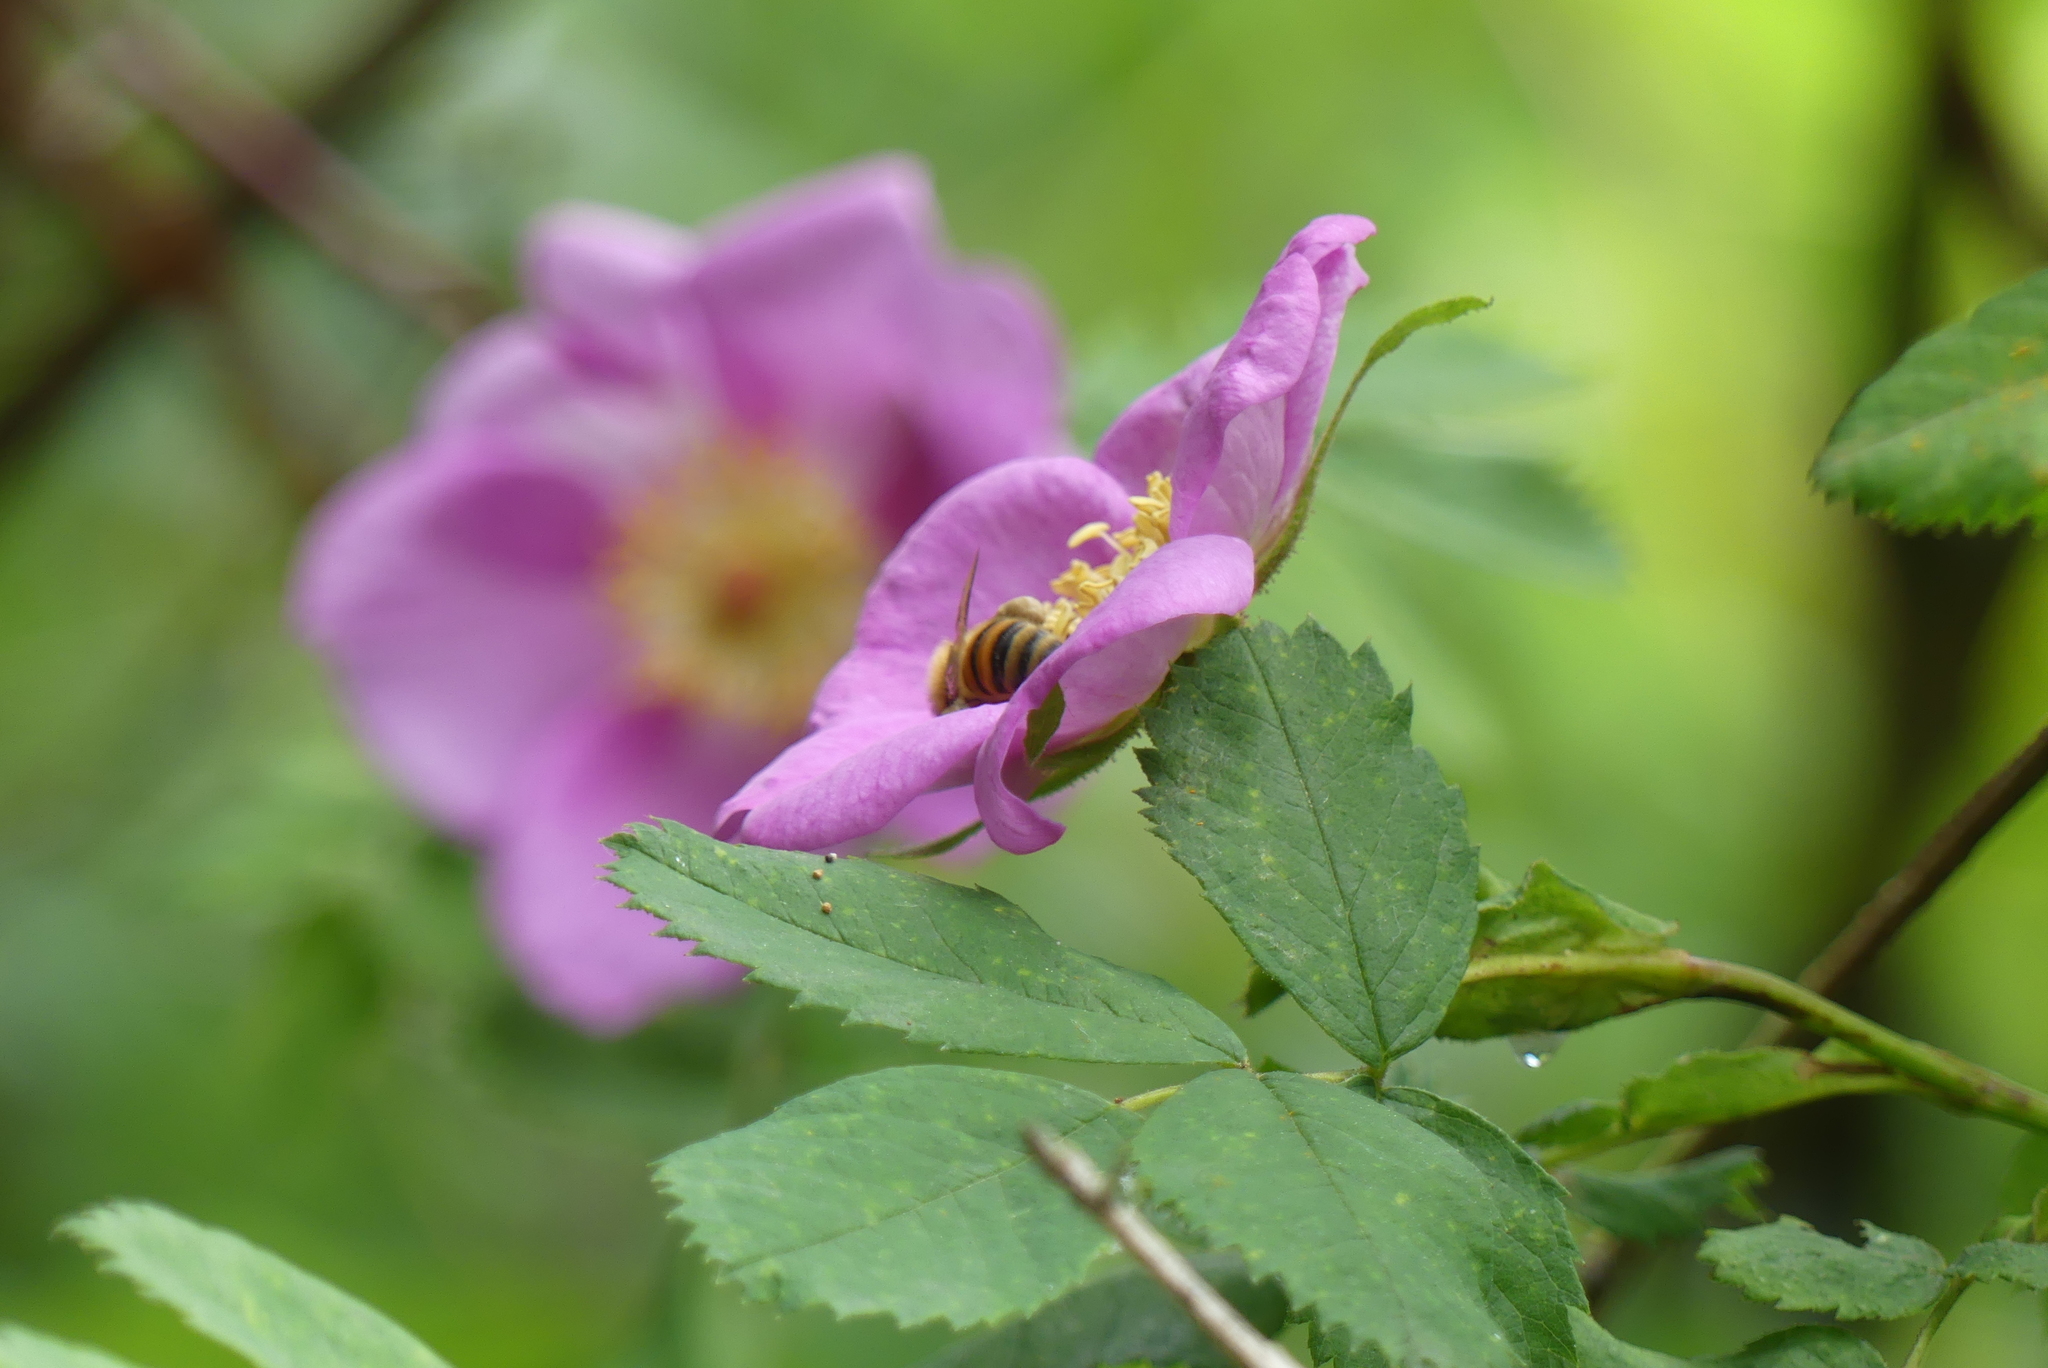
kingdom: Animalia
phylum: Arthropoda
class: Insecta
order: Hymenoptera
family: Apidae
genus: Apis
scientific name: Apis mellifera
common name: Honey bee
